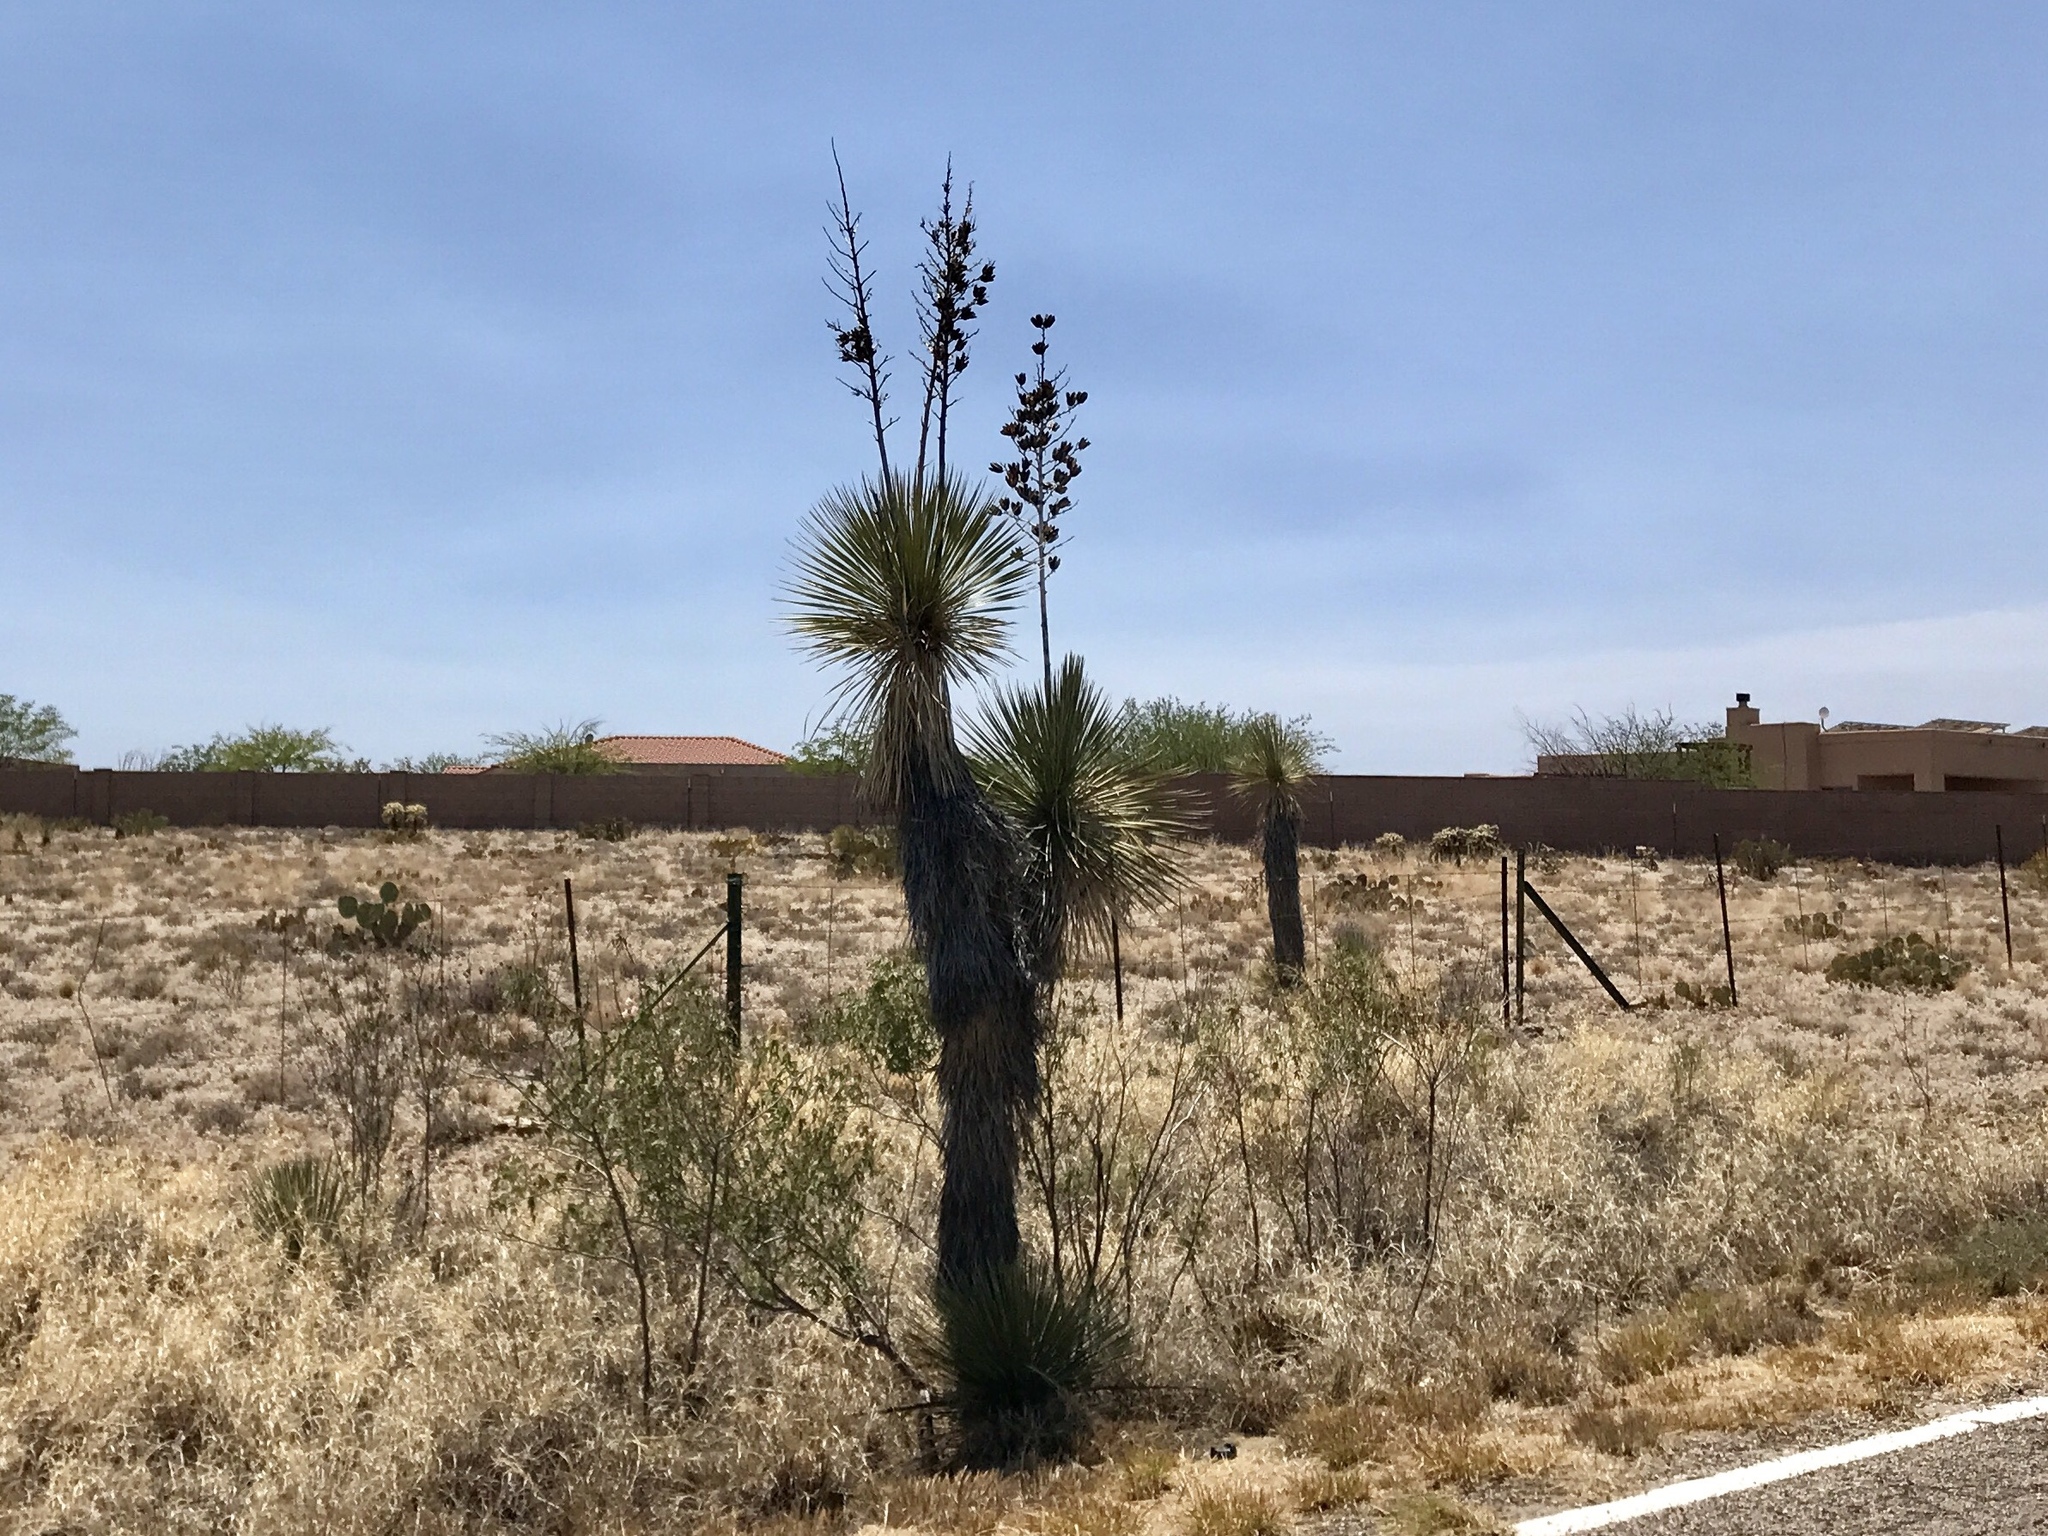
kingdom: Plantae
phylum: Tracheophyta
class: Liliopsida
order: Asparagales
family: Asparagaceae
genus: Yucca
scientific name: Yucca elata
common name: Palmella
